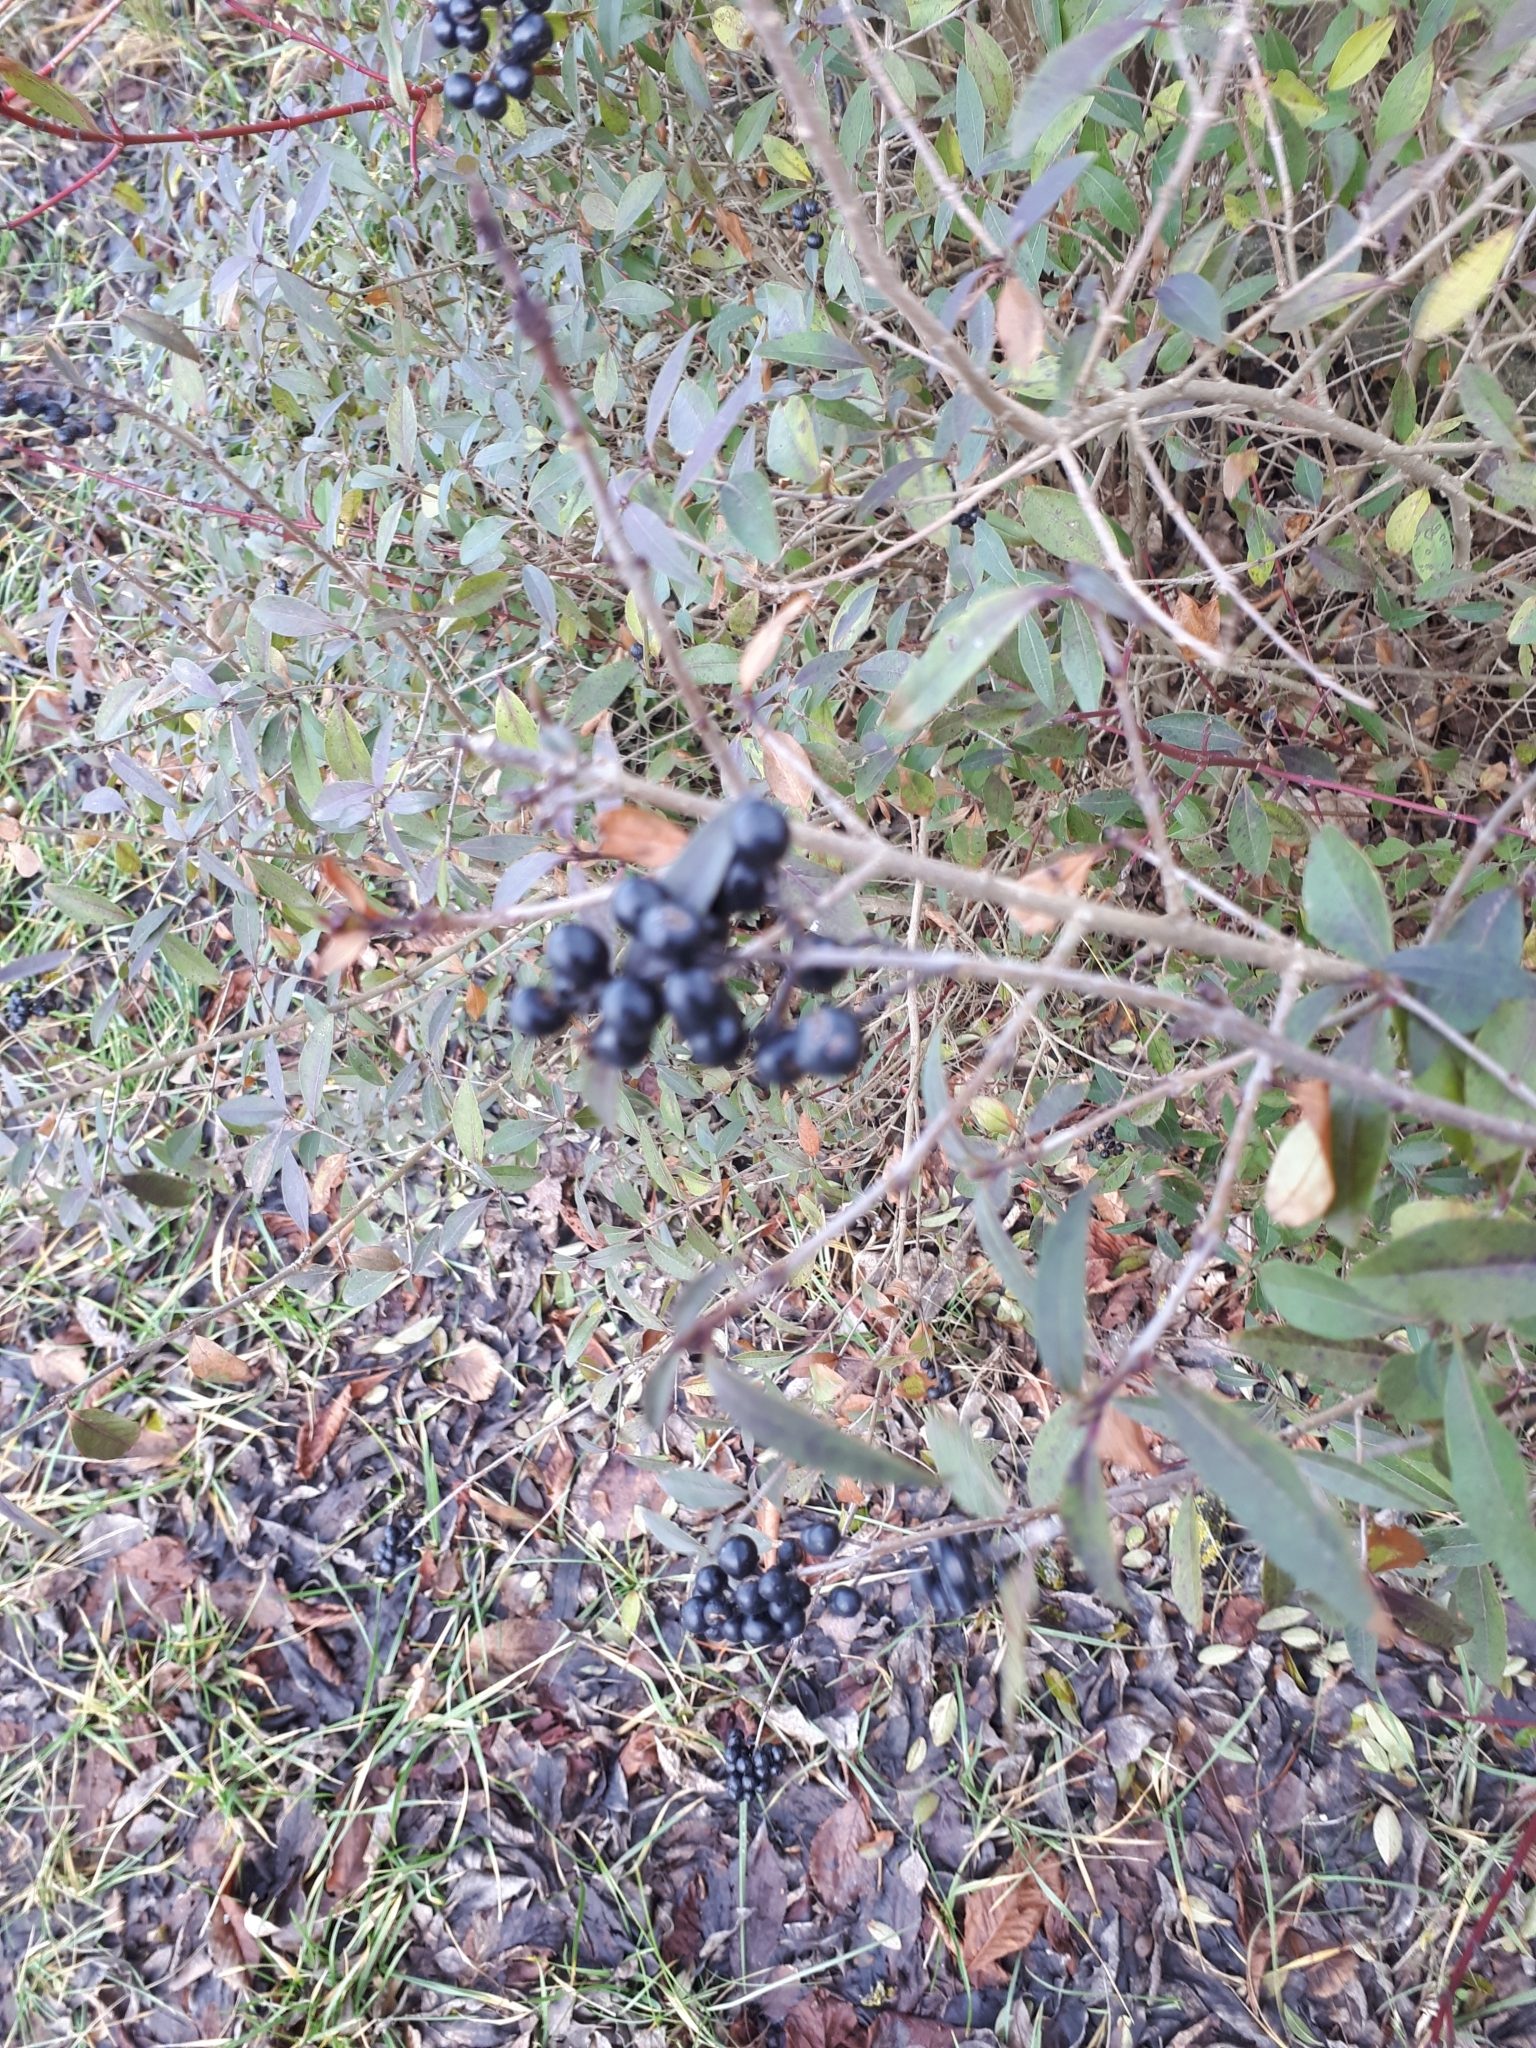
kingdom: Plantae
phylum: Tracheophyta
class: Magnoliopsida
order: Lamiales
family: Oleaceae
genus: Ligustrum
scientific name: Ligustrum vulgare
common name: Wild privet
